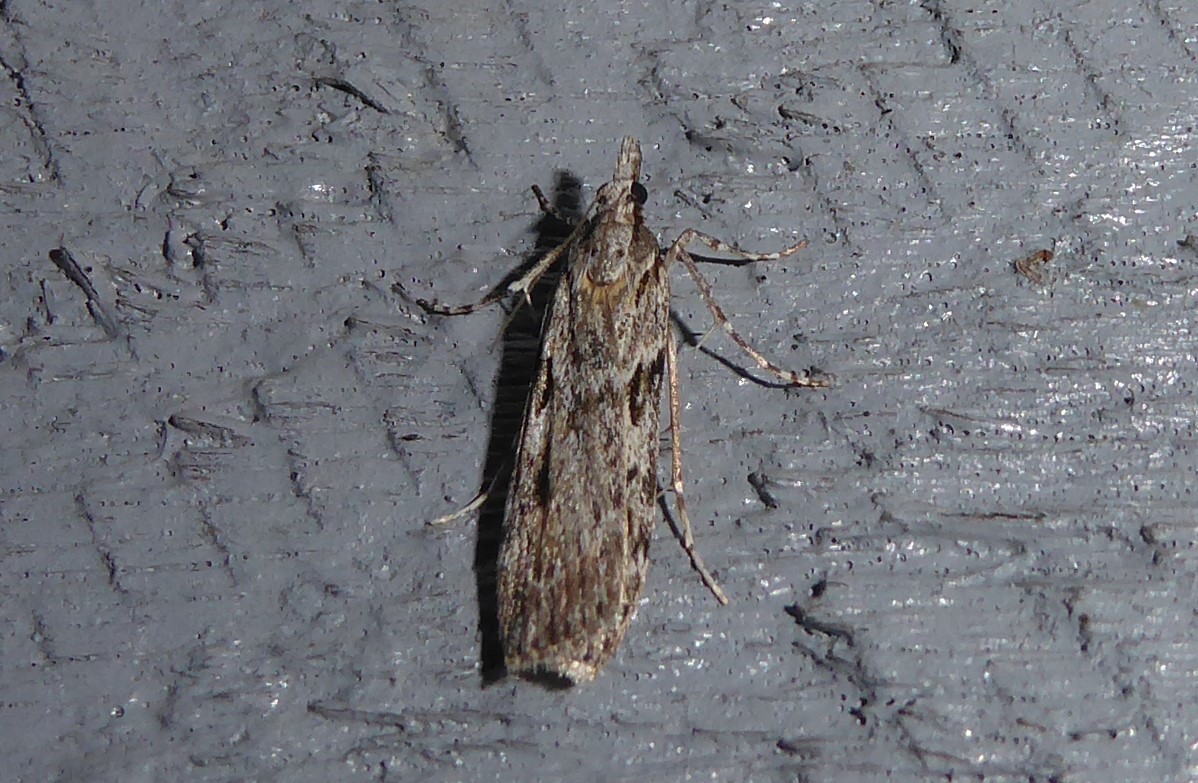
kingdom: Animalia
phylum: Arthropoda
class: Insecta
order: Lepidoptera
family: Crambidae
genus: Scoparia
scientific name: Scoparia halopis
